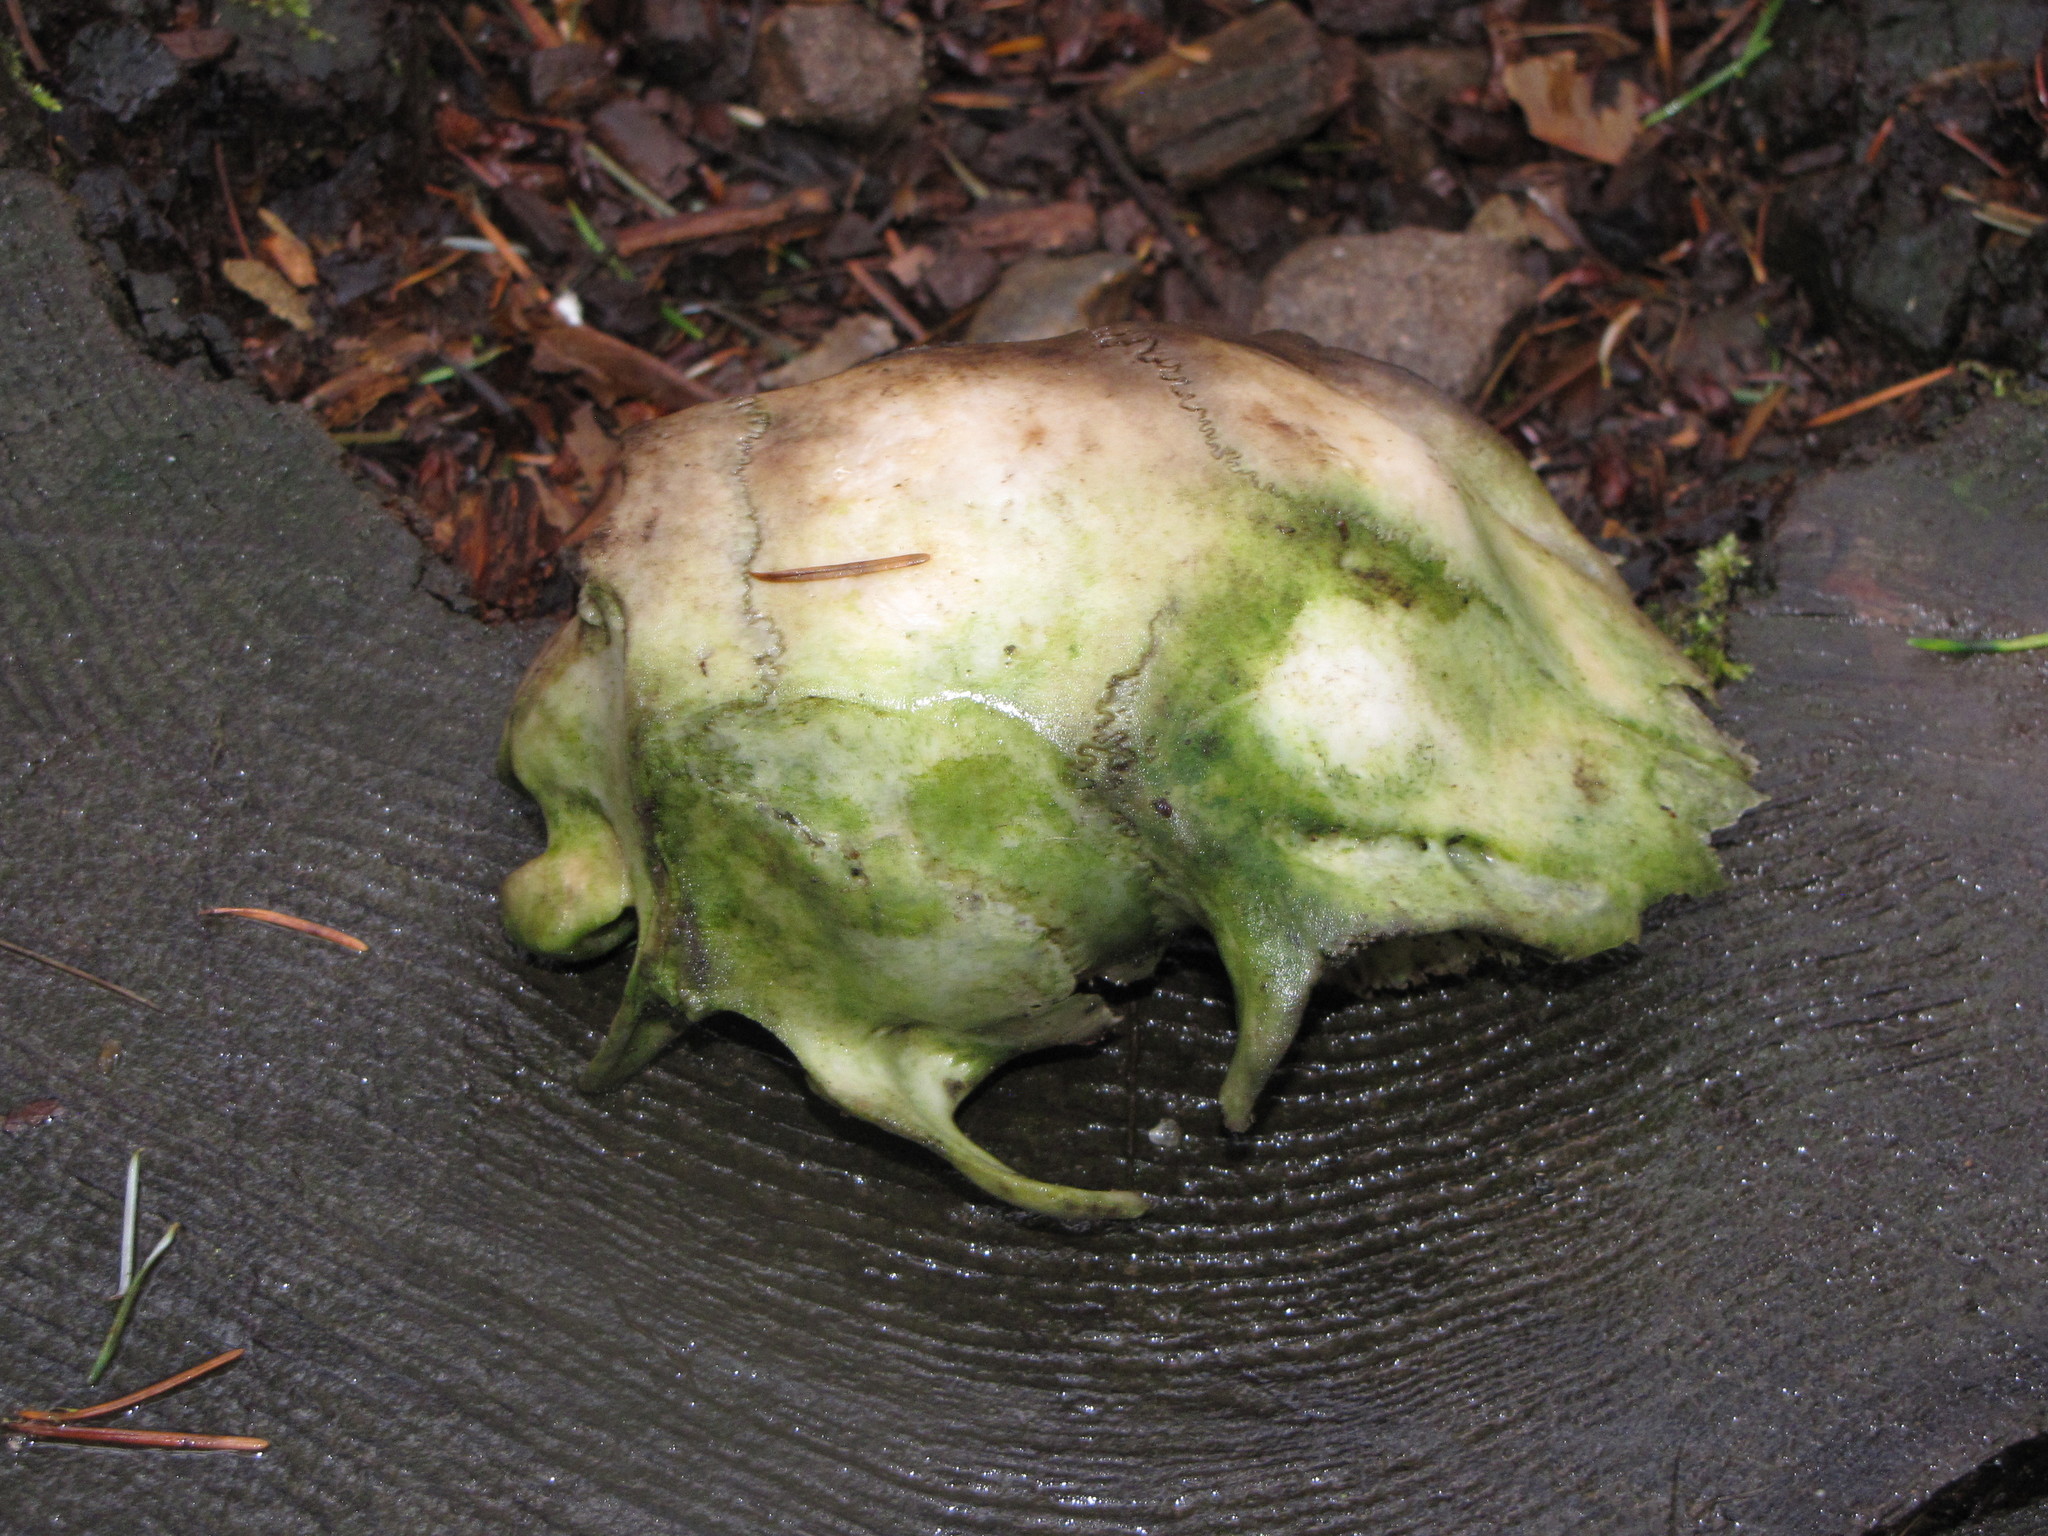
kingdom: Animalia
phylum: Chordata
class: Mammalia
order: Artiodactyla
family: Cervidae
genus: Odocoileus
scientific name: Odocoileus hemionus
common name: Mule deer
